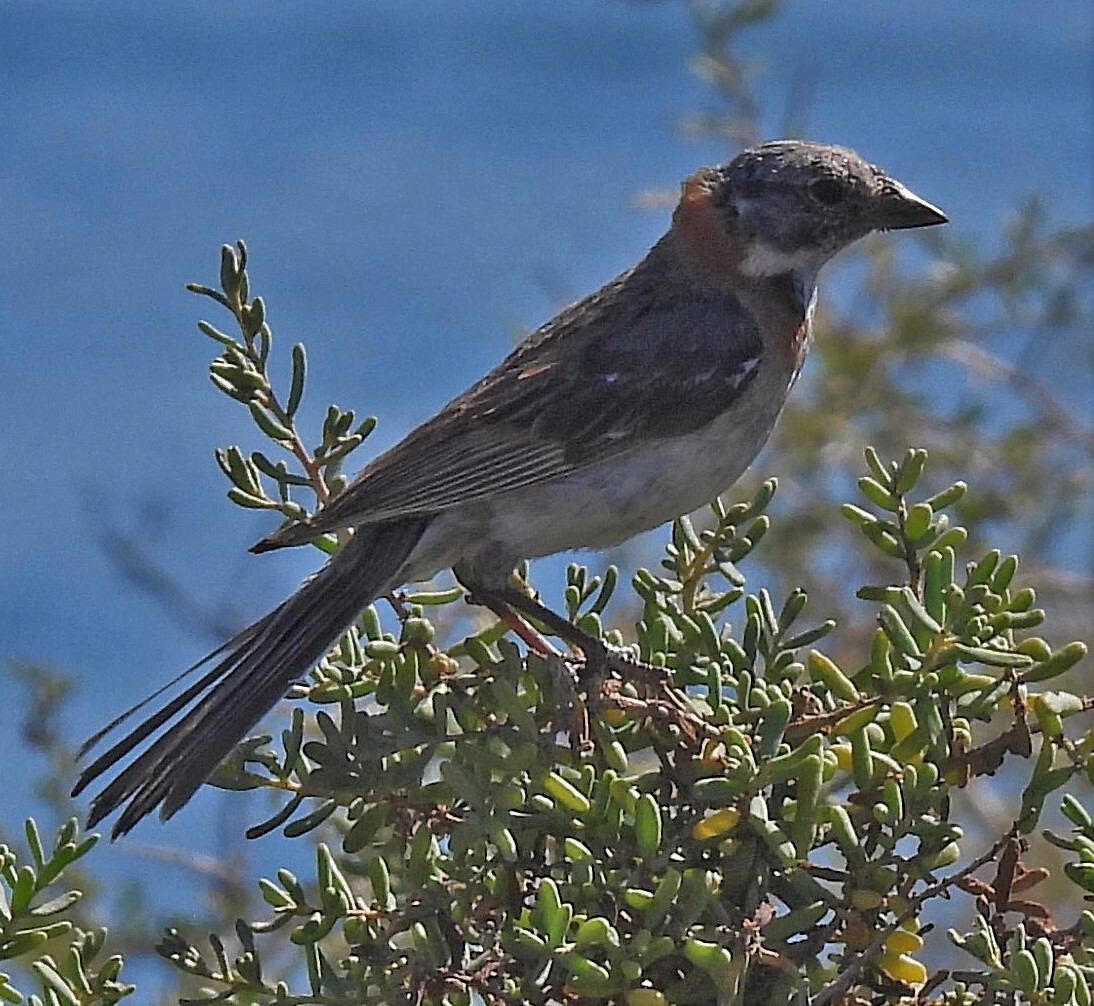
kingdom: Animalia
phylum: Chordata
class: Aves
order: Passeriformes
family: Passerellidae
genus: Zonotrichia
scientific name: Zonotrichia capensis
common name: Rufous-collared sparrow
